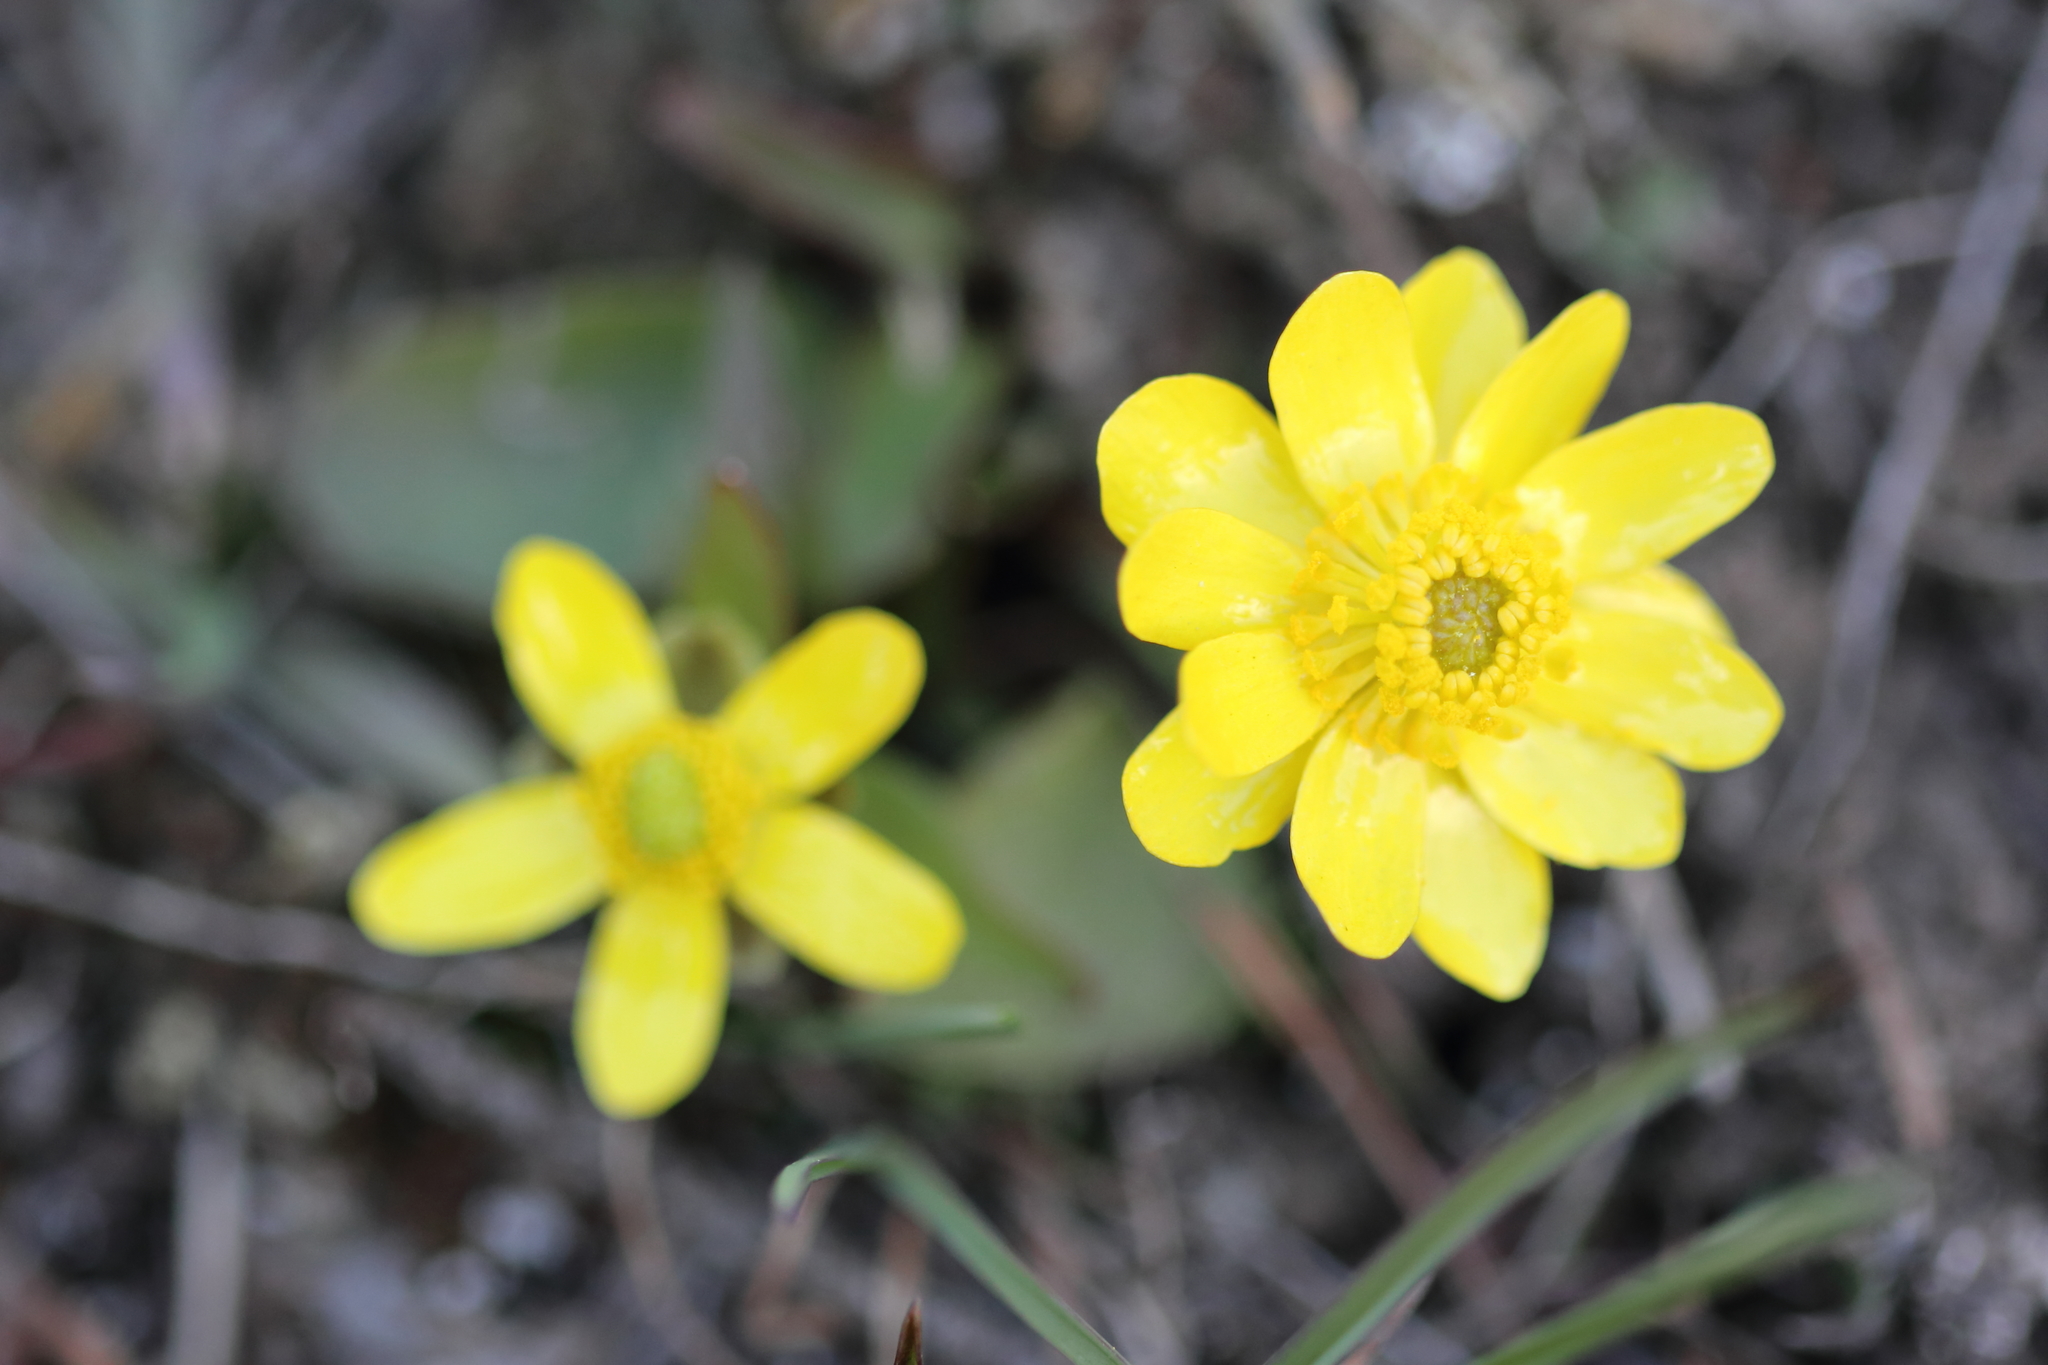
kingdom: Plantae
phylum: Tracheophyta
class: Magnoliopsida
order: Ranunculales
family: Ranunculaceae
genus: Ranunculus
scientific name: Ranunculus glaberrimus
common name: Sagebrush buttercup
